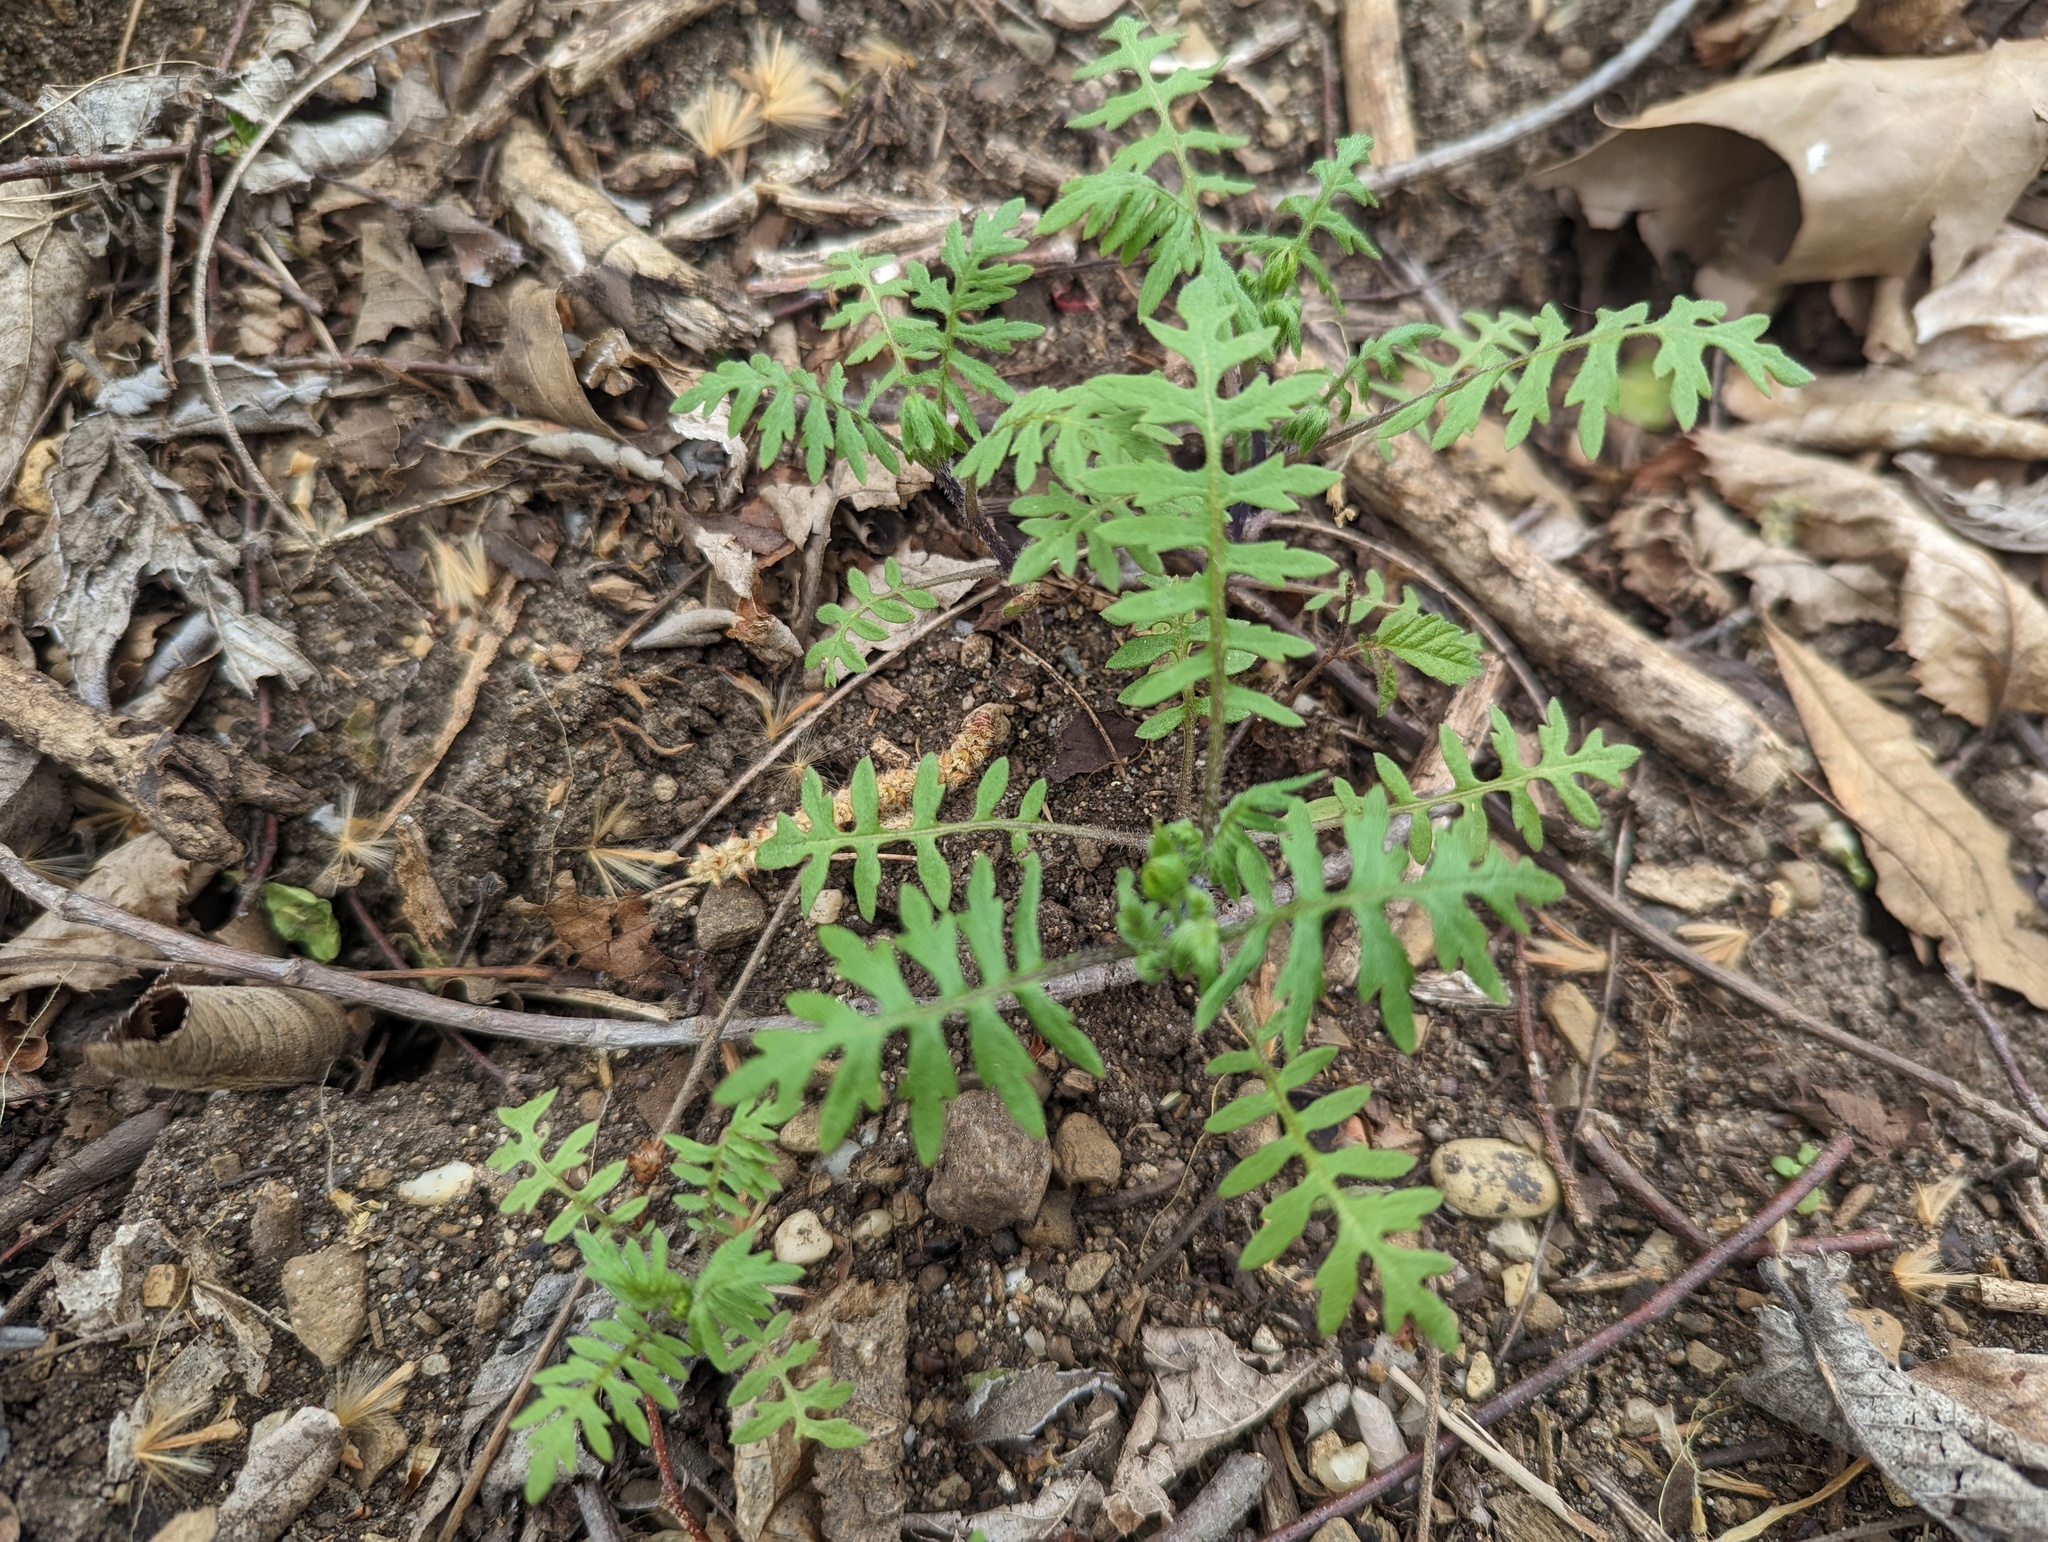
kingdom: Plantae
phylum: Tracheophyta
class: Magnoliopsida
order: Boraginales
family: Hydrophyllaceae
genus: Ellisia
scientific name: Ellisia nyctelea
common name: Aunt lucy
